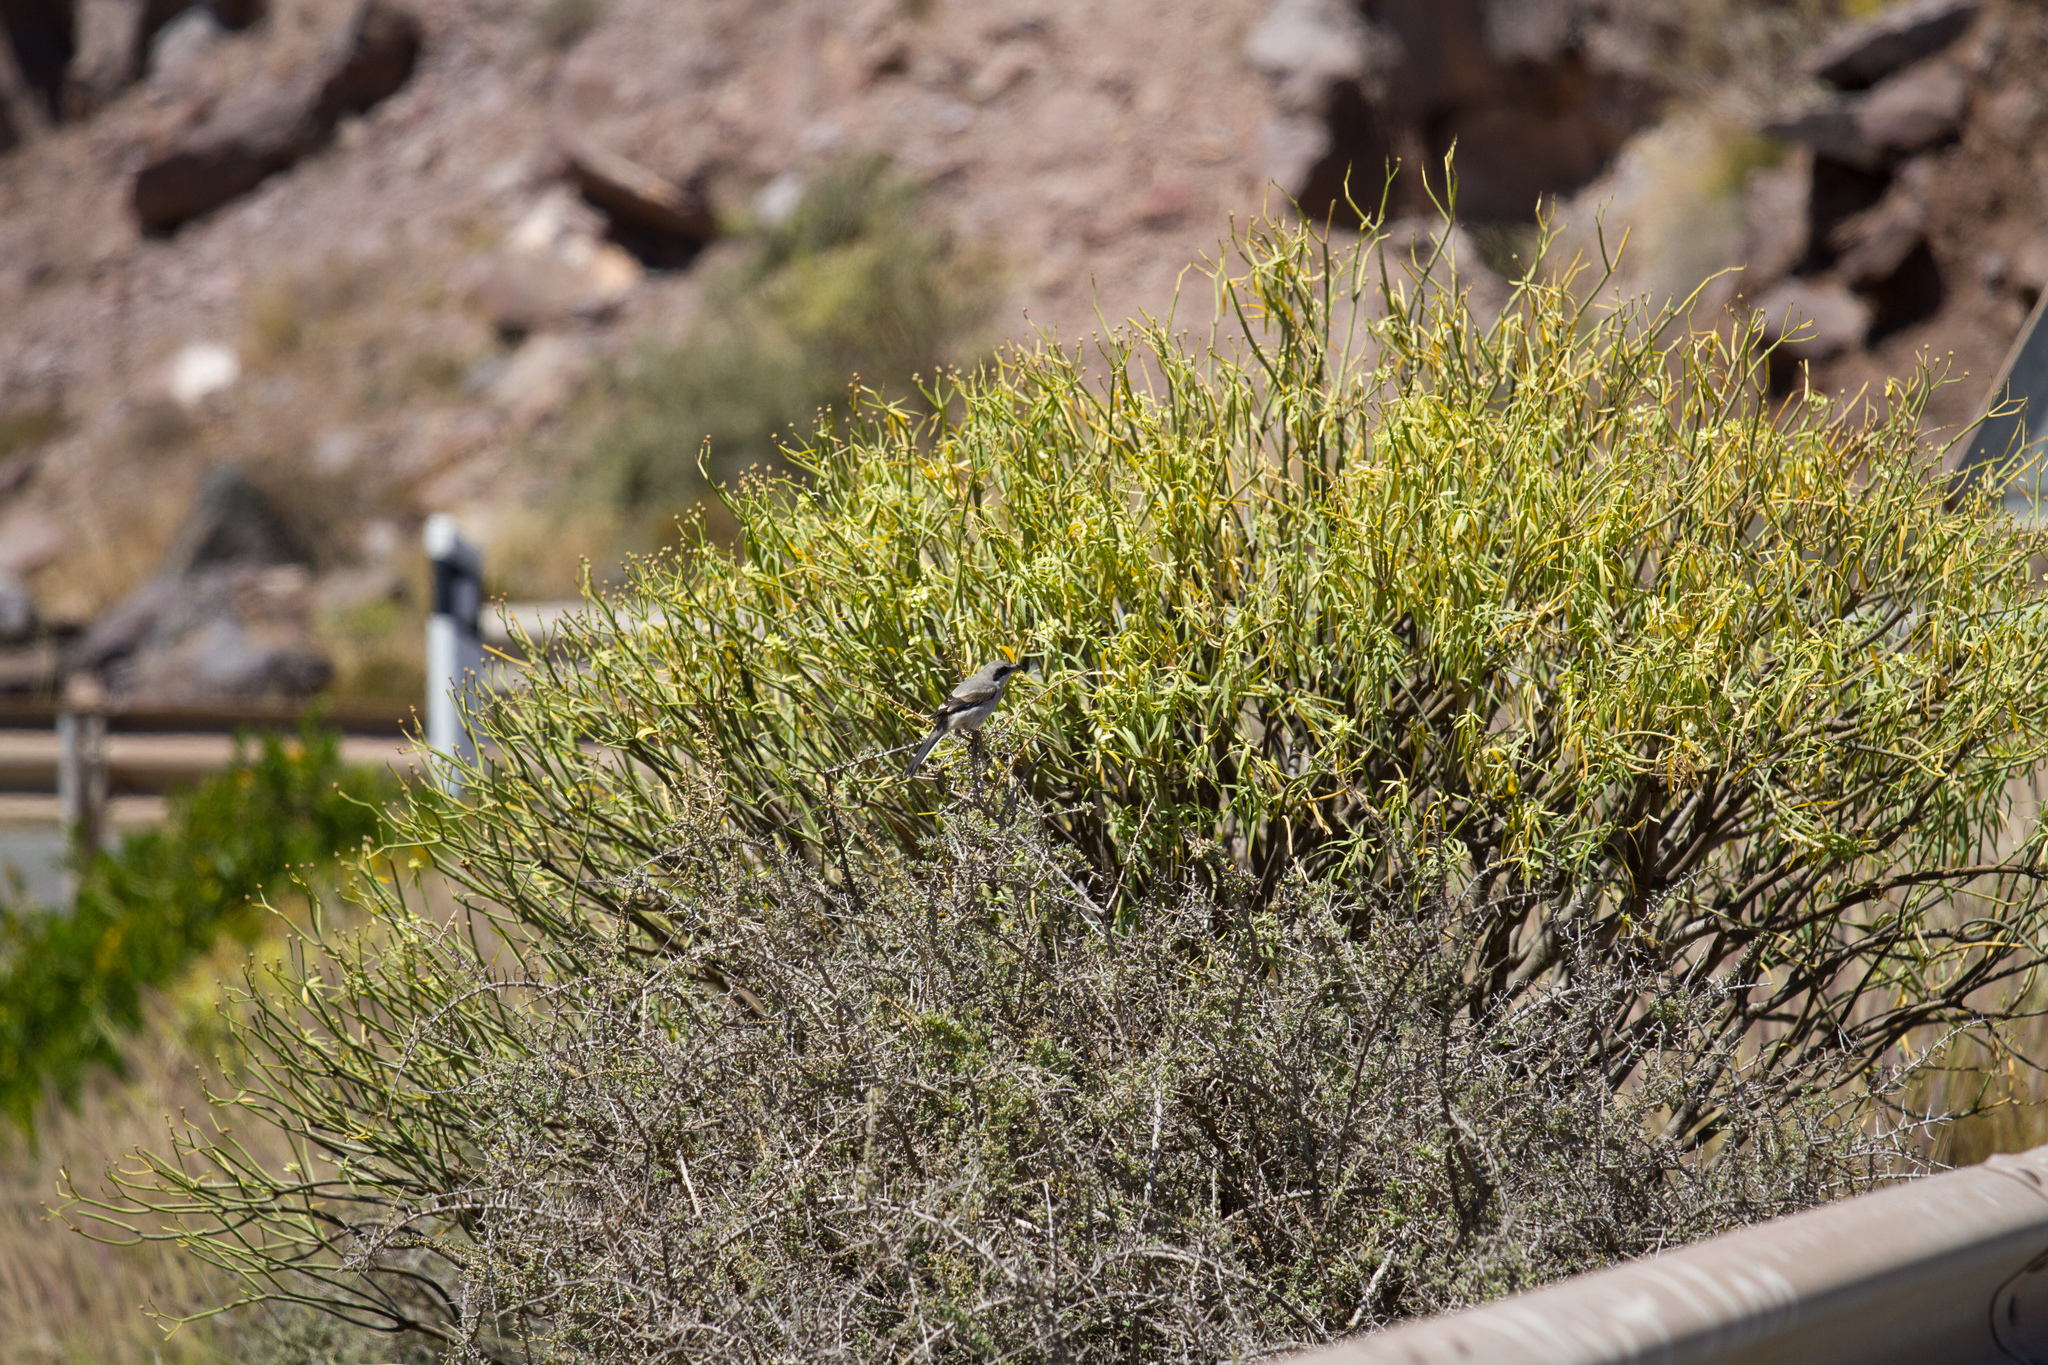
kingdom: Animalia
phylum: Chordata
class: Aves
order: Passeriformes
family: Laniidae
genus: Lanius
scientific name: Lanius excubitor
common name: Great grey shrike
